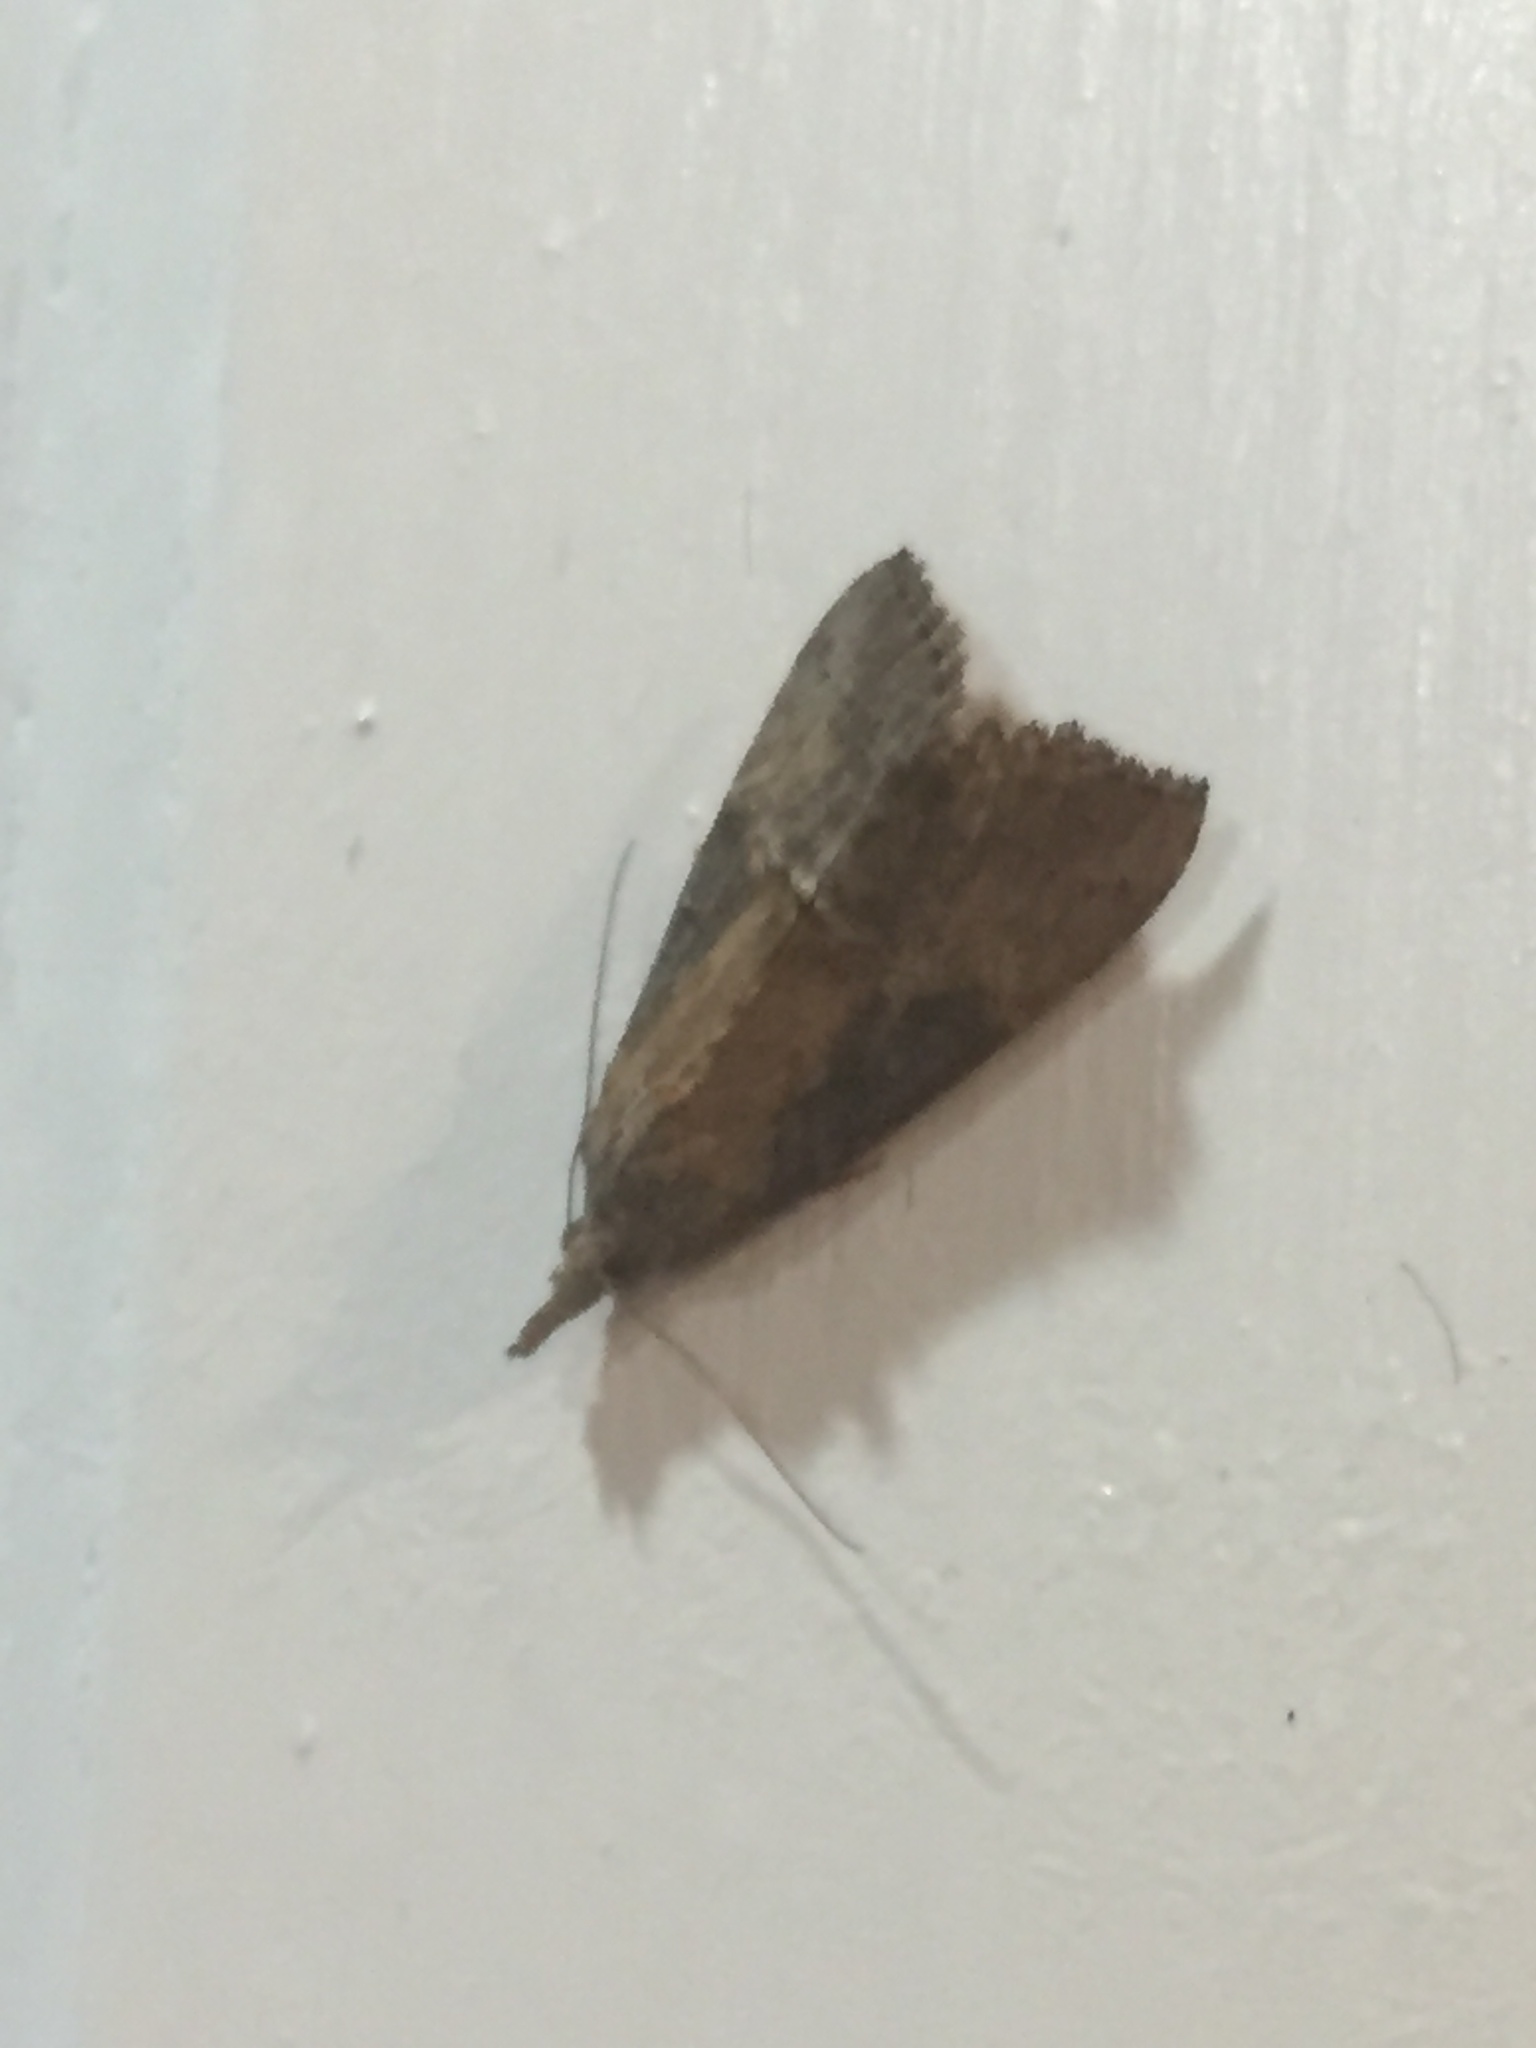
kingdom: Animalia
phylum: Arthropoda
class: Insecta
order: Lepidoptera
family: Erebidae
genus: Hypena
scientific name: Hypena scabra
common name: Green cloverworm
